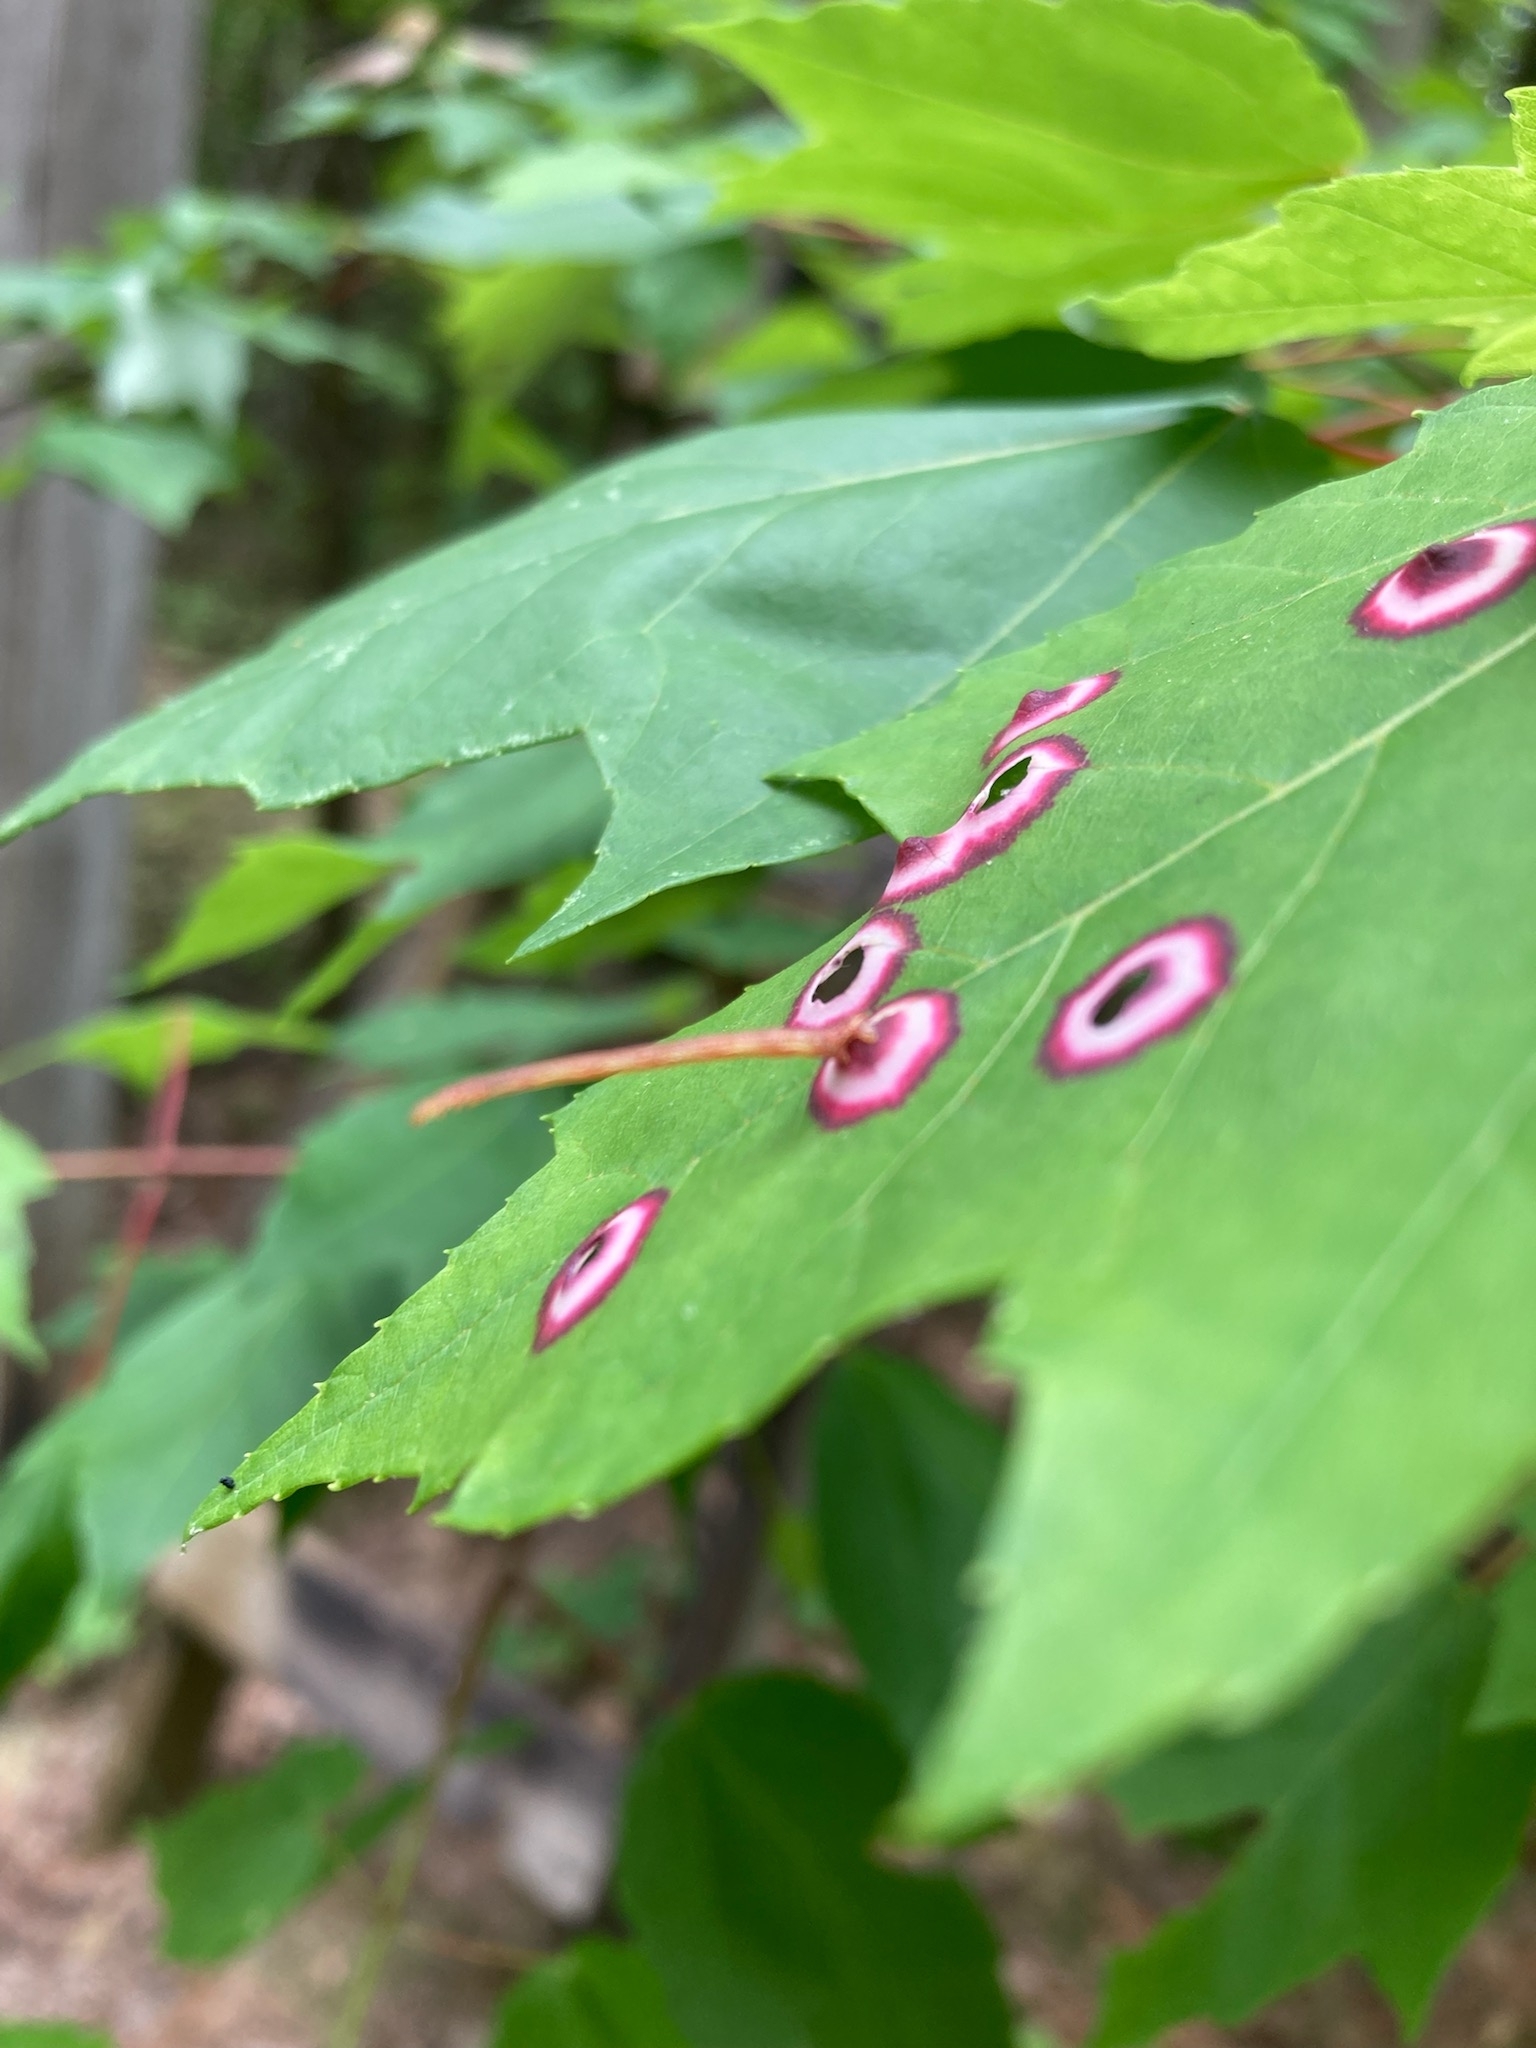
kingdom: Animalia
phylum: Arthropoda
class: Insecta
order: Diptera
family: Cecidomyiidae
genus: Acericecis
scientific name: Acericecis ocellaris
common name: Ocellate gall midge
